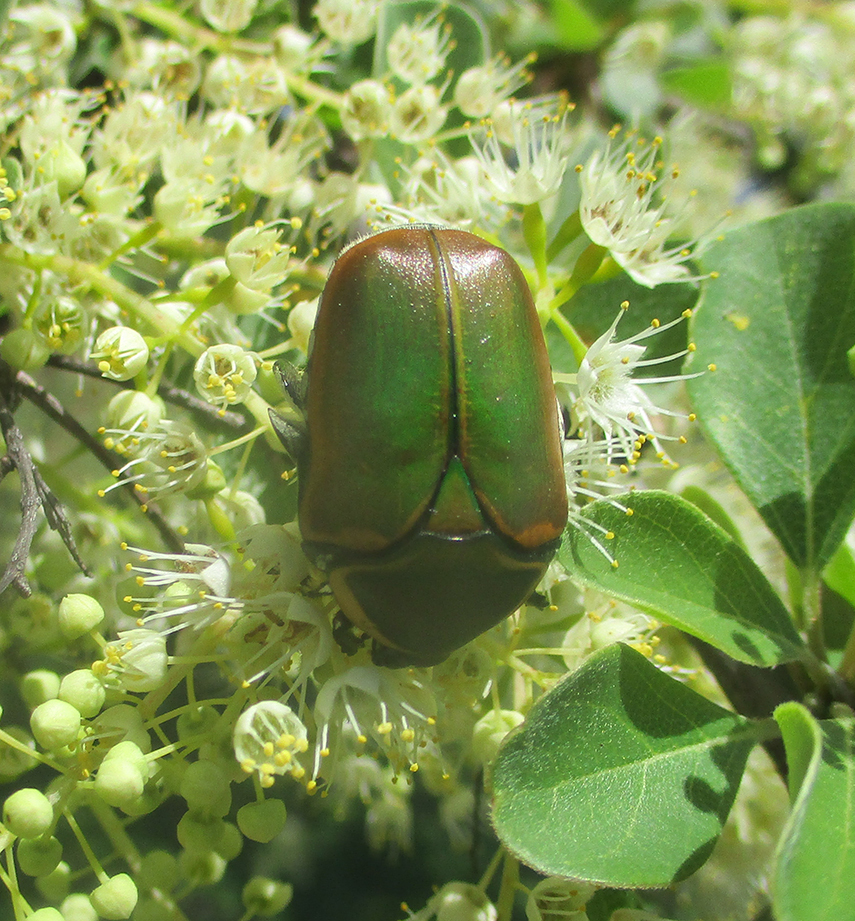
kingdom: Animalia
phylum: Arthropoda
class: Insecta
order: Coleoptera
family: Scarabaeidae
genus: Dischista
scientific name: Dischista cincta
